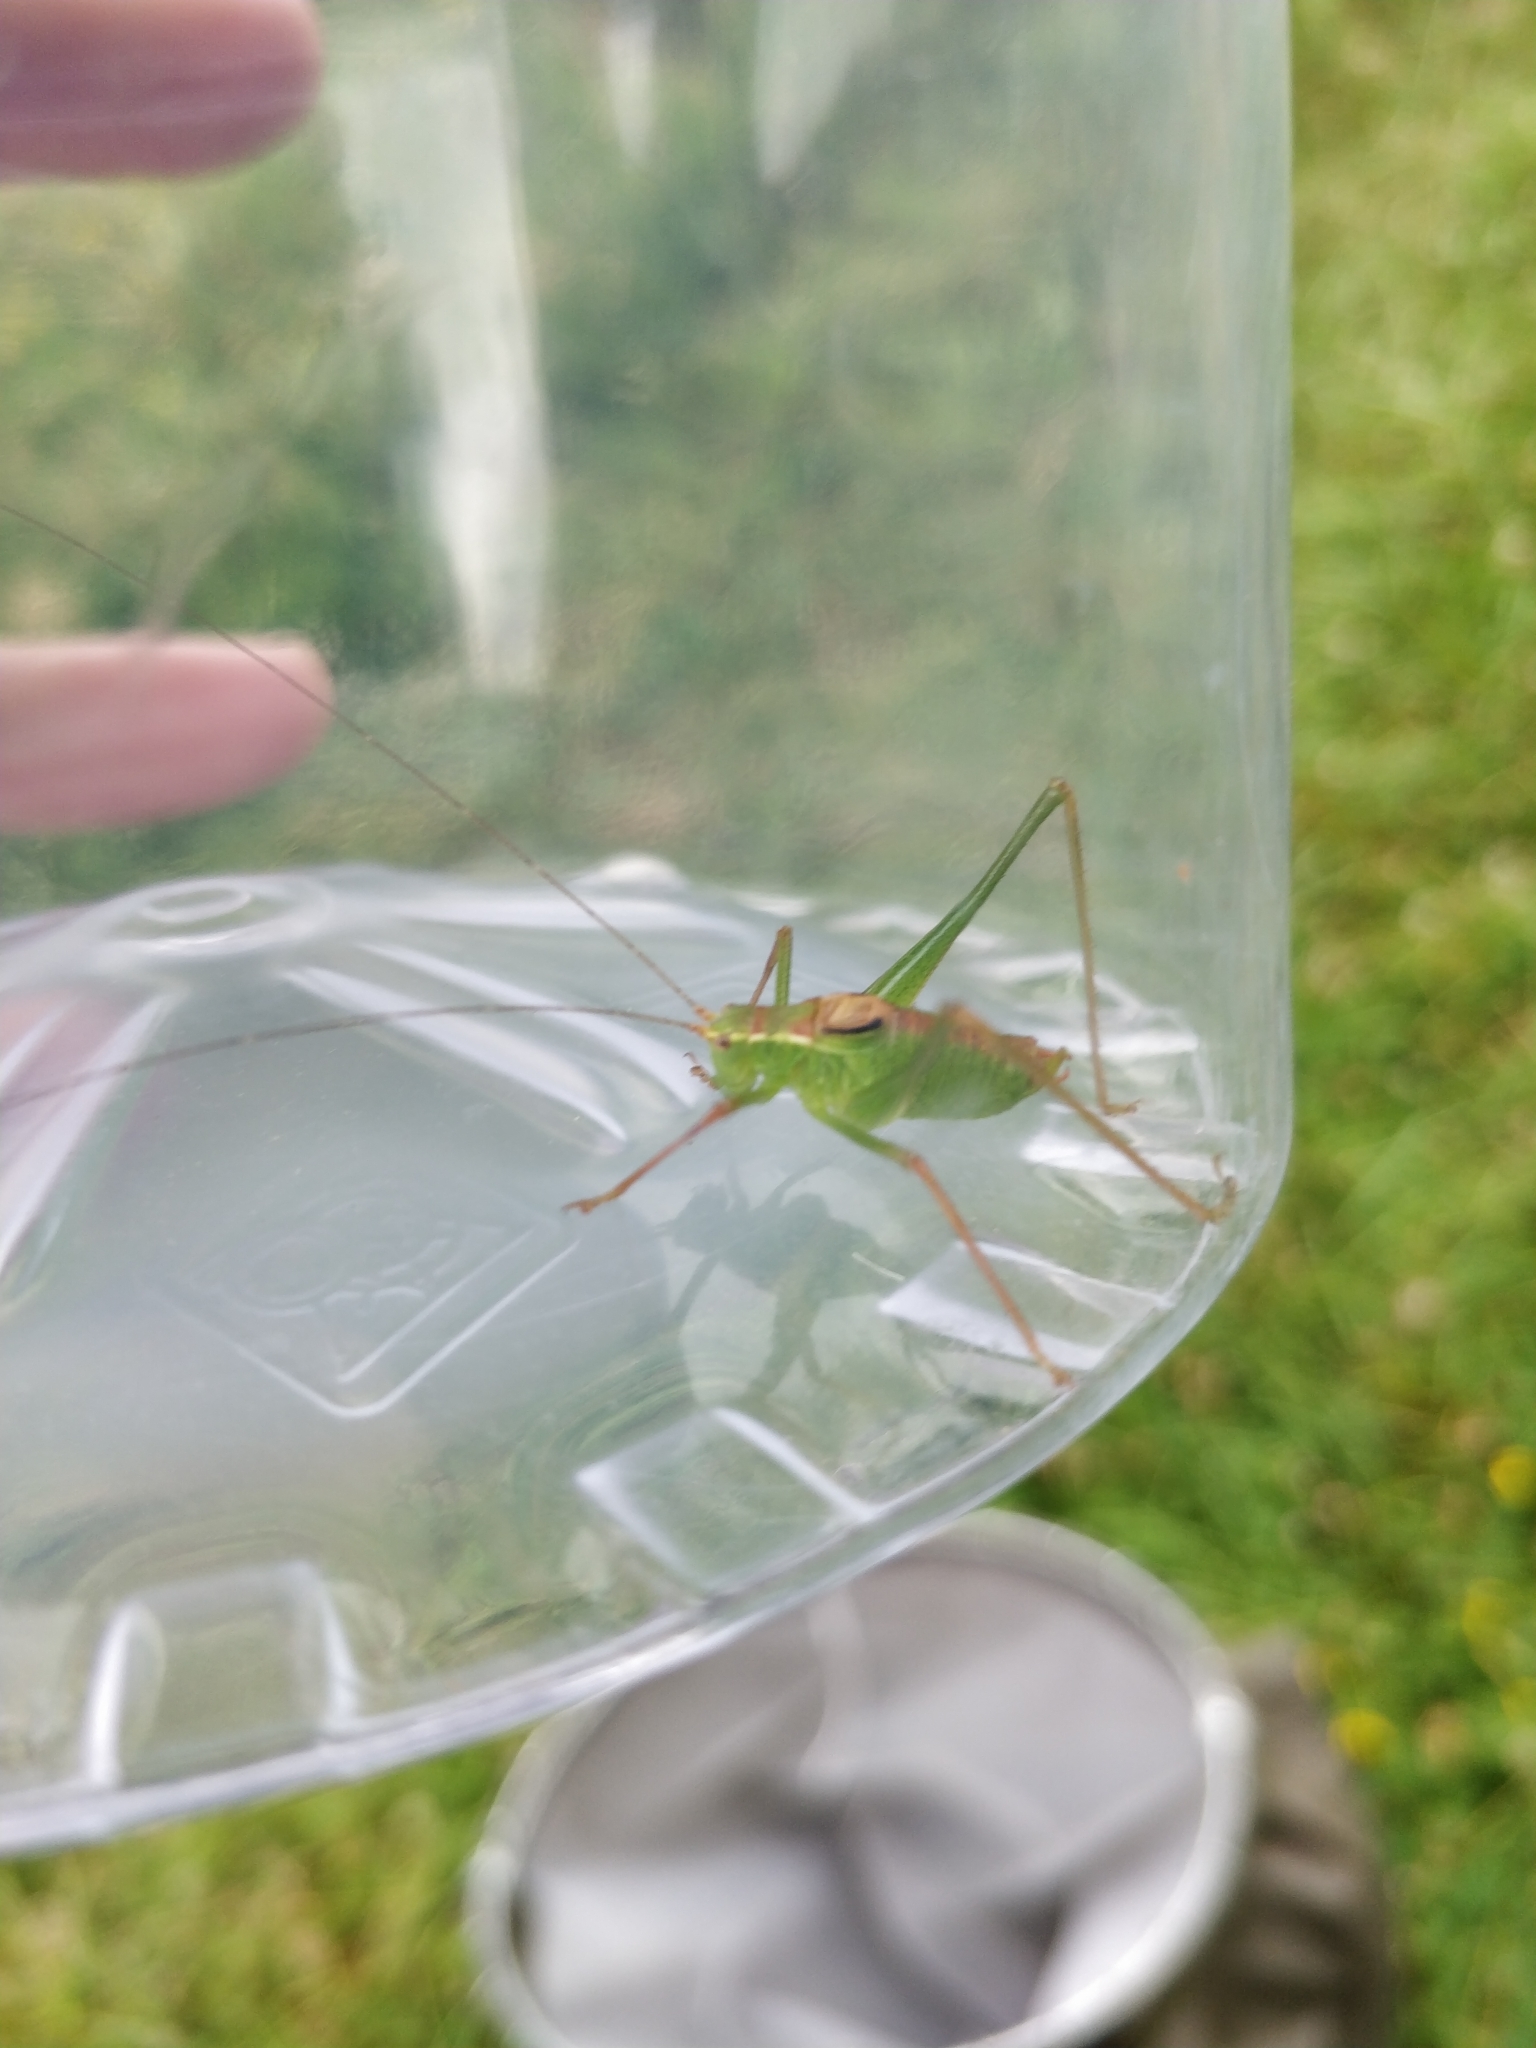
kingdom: Animalia
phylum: Arthropoda
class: Insecta
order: Orthoptera
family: Tettigoniidae
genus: Leptophyes
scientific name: Leptophyes punctatissima
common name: Speckled bush-cricket
